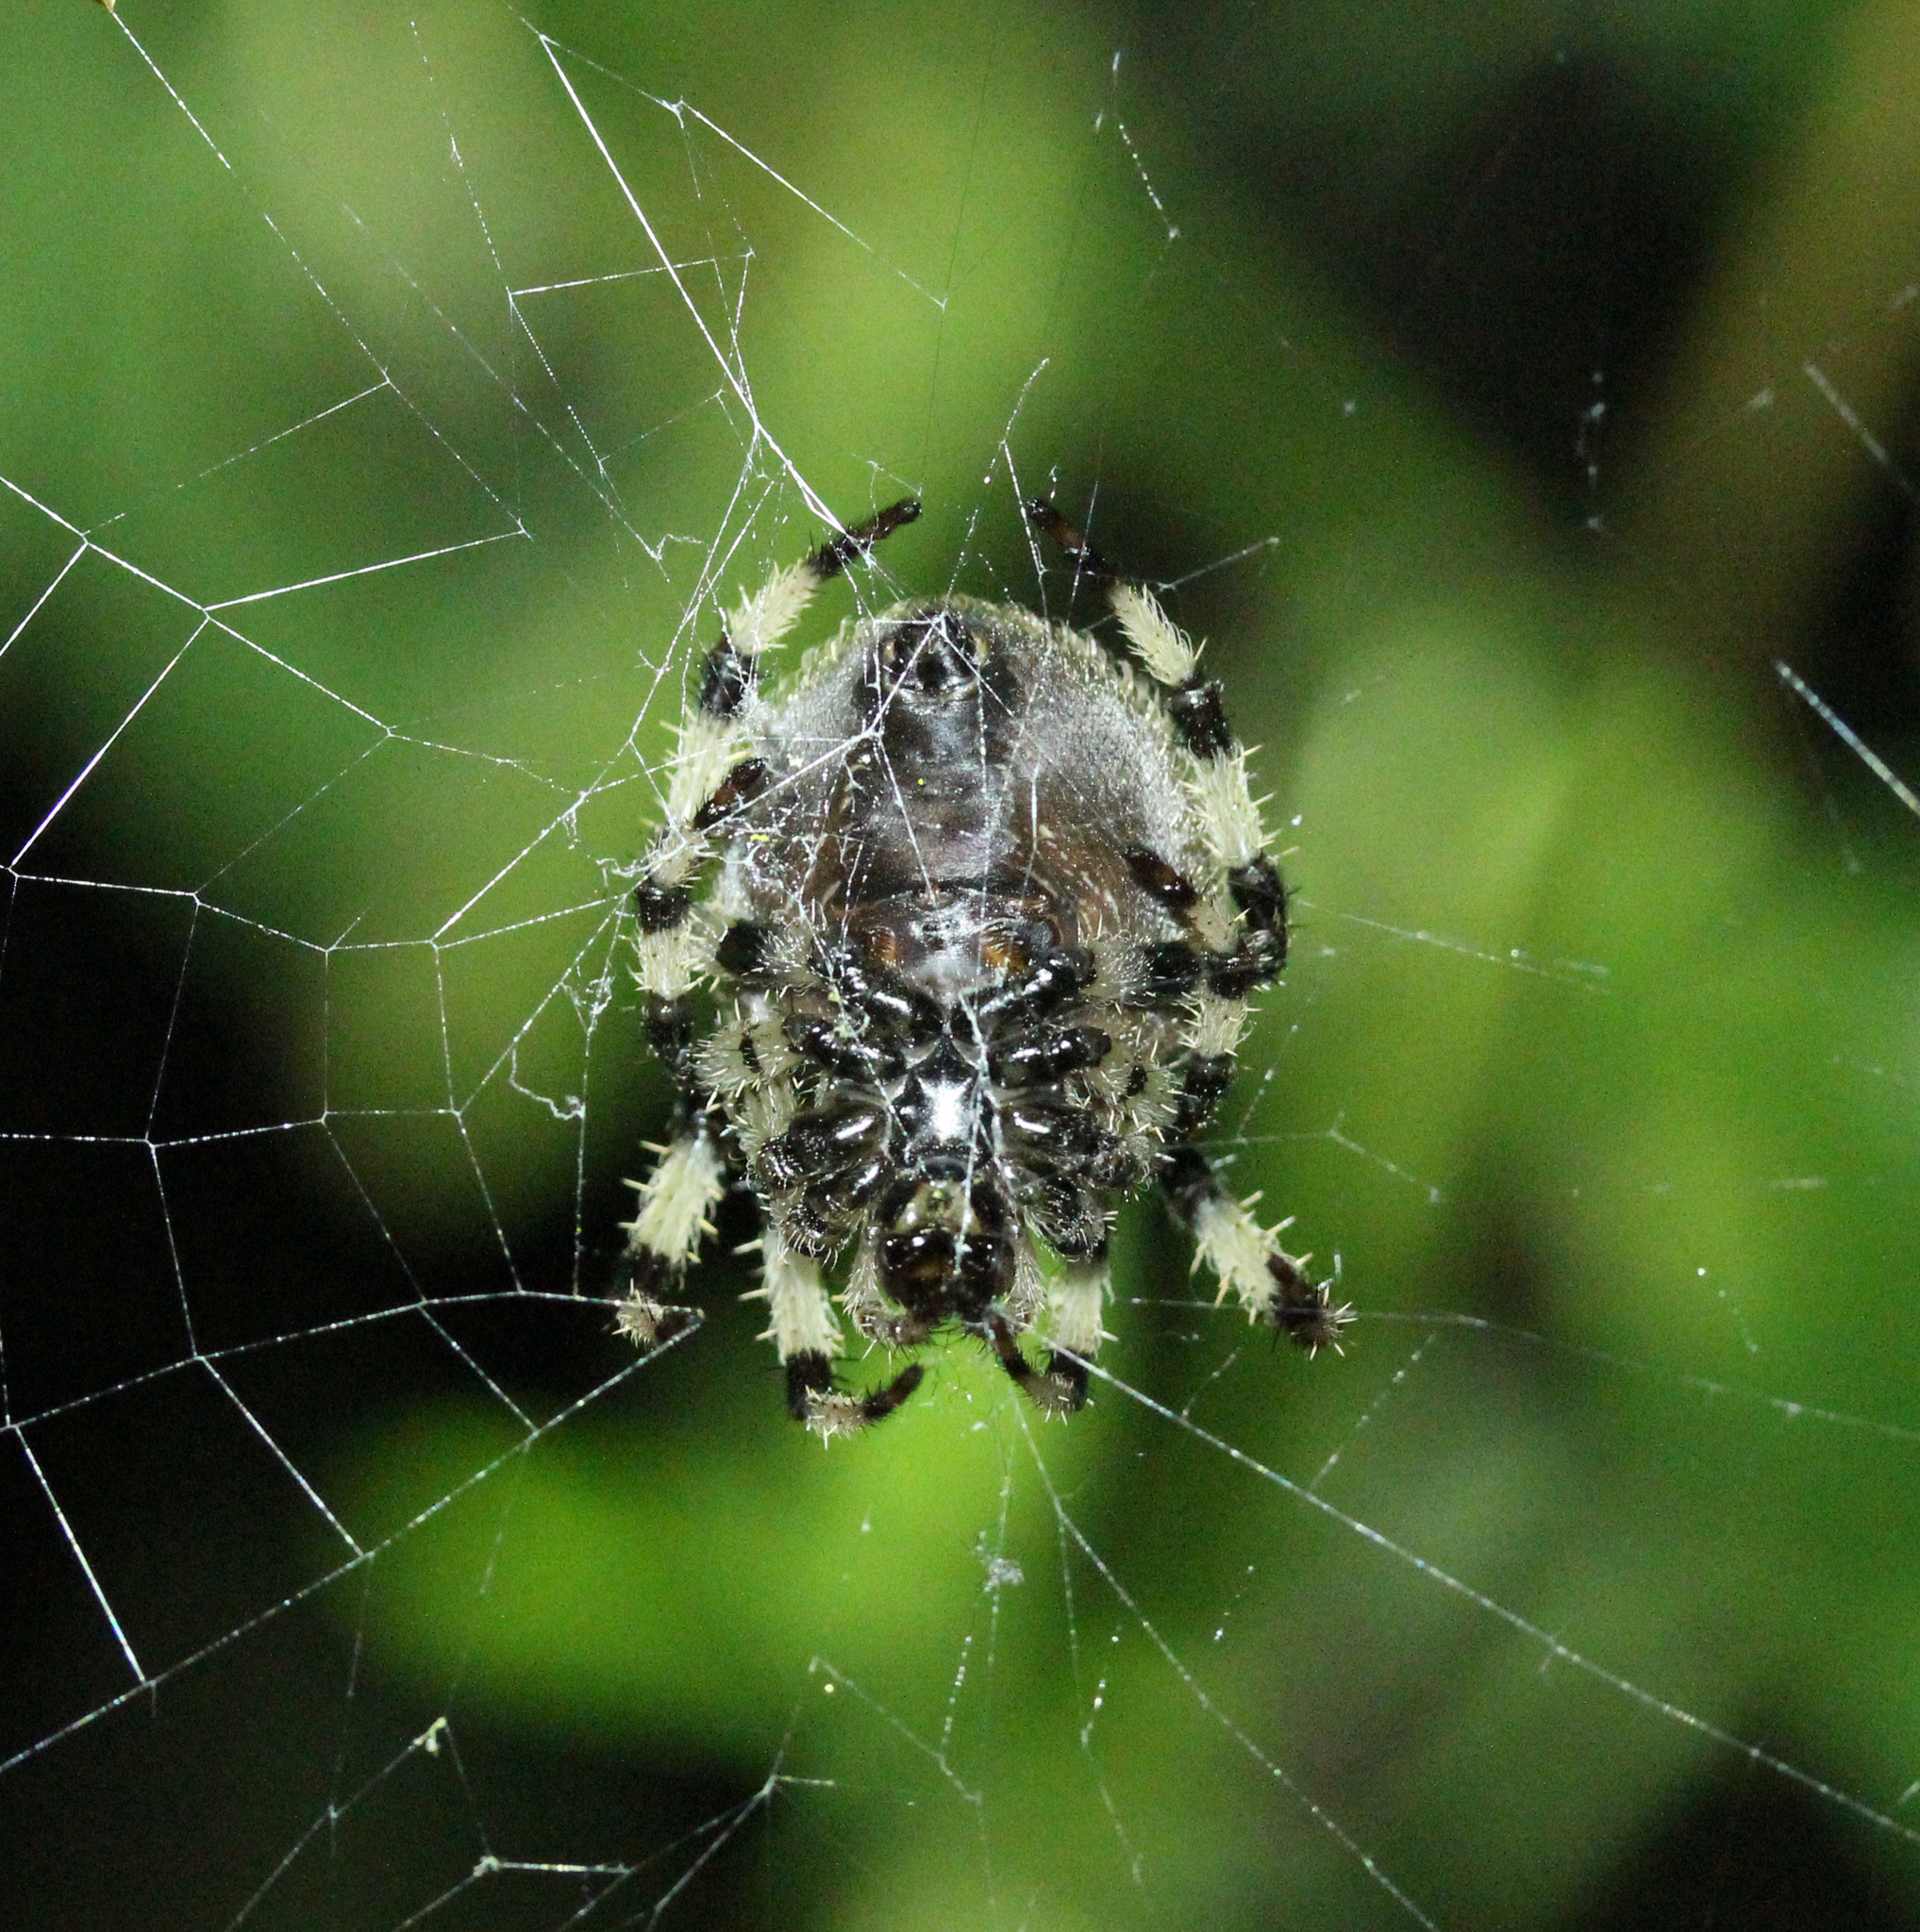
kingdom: Animalia
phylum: Arthropoda
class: Arachnida
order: Araneae
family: Araneidae
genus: Araneus
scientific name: Araneus trifolium
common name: Shamrock orbweaver
